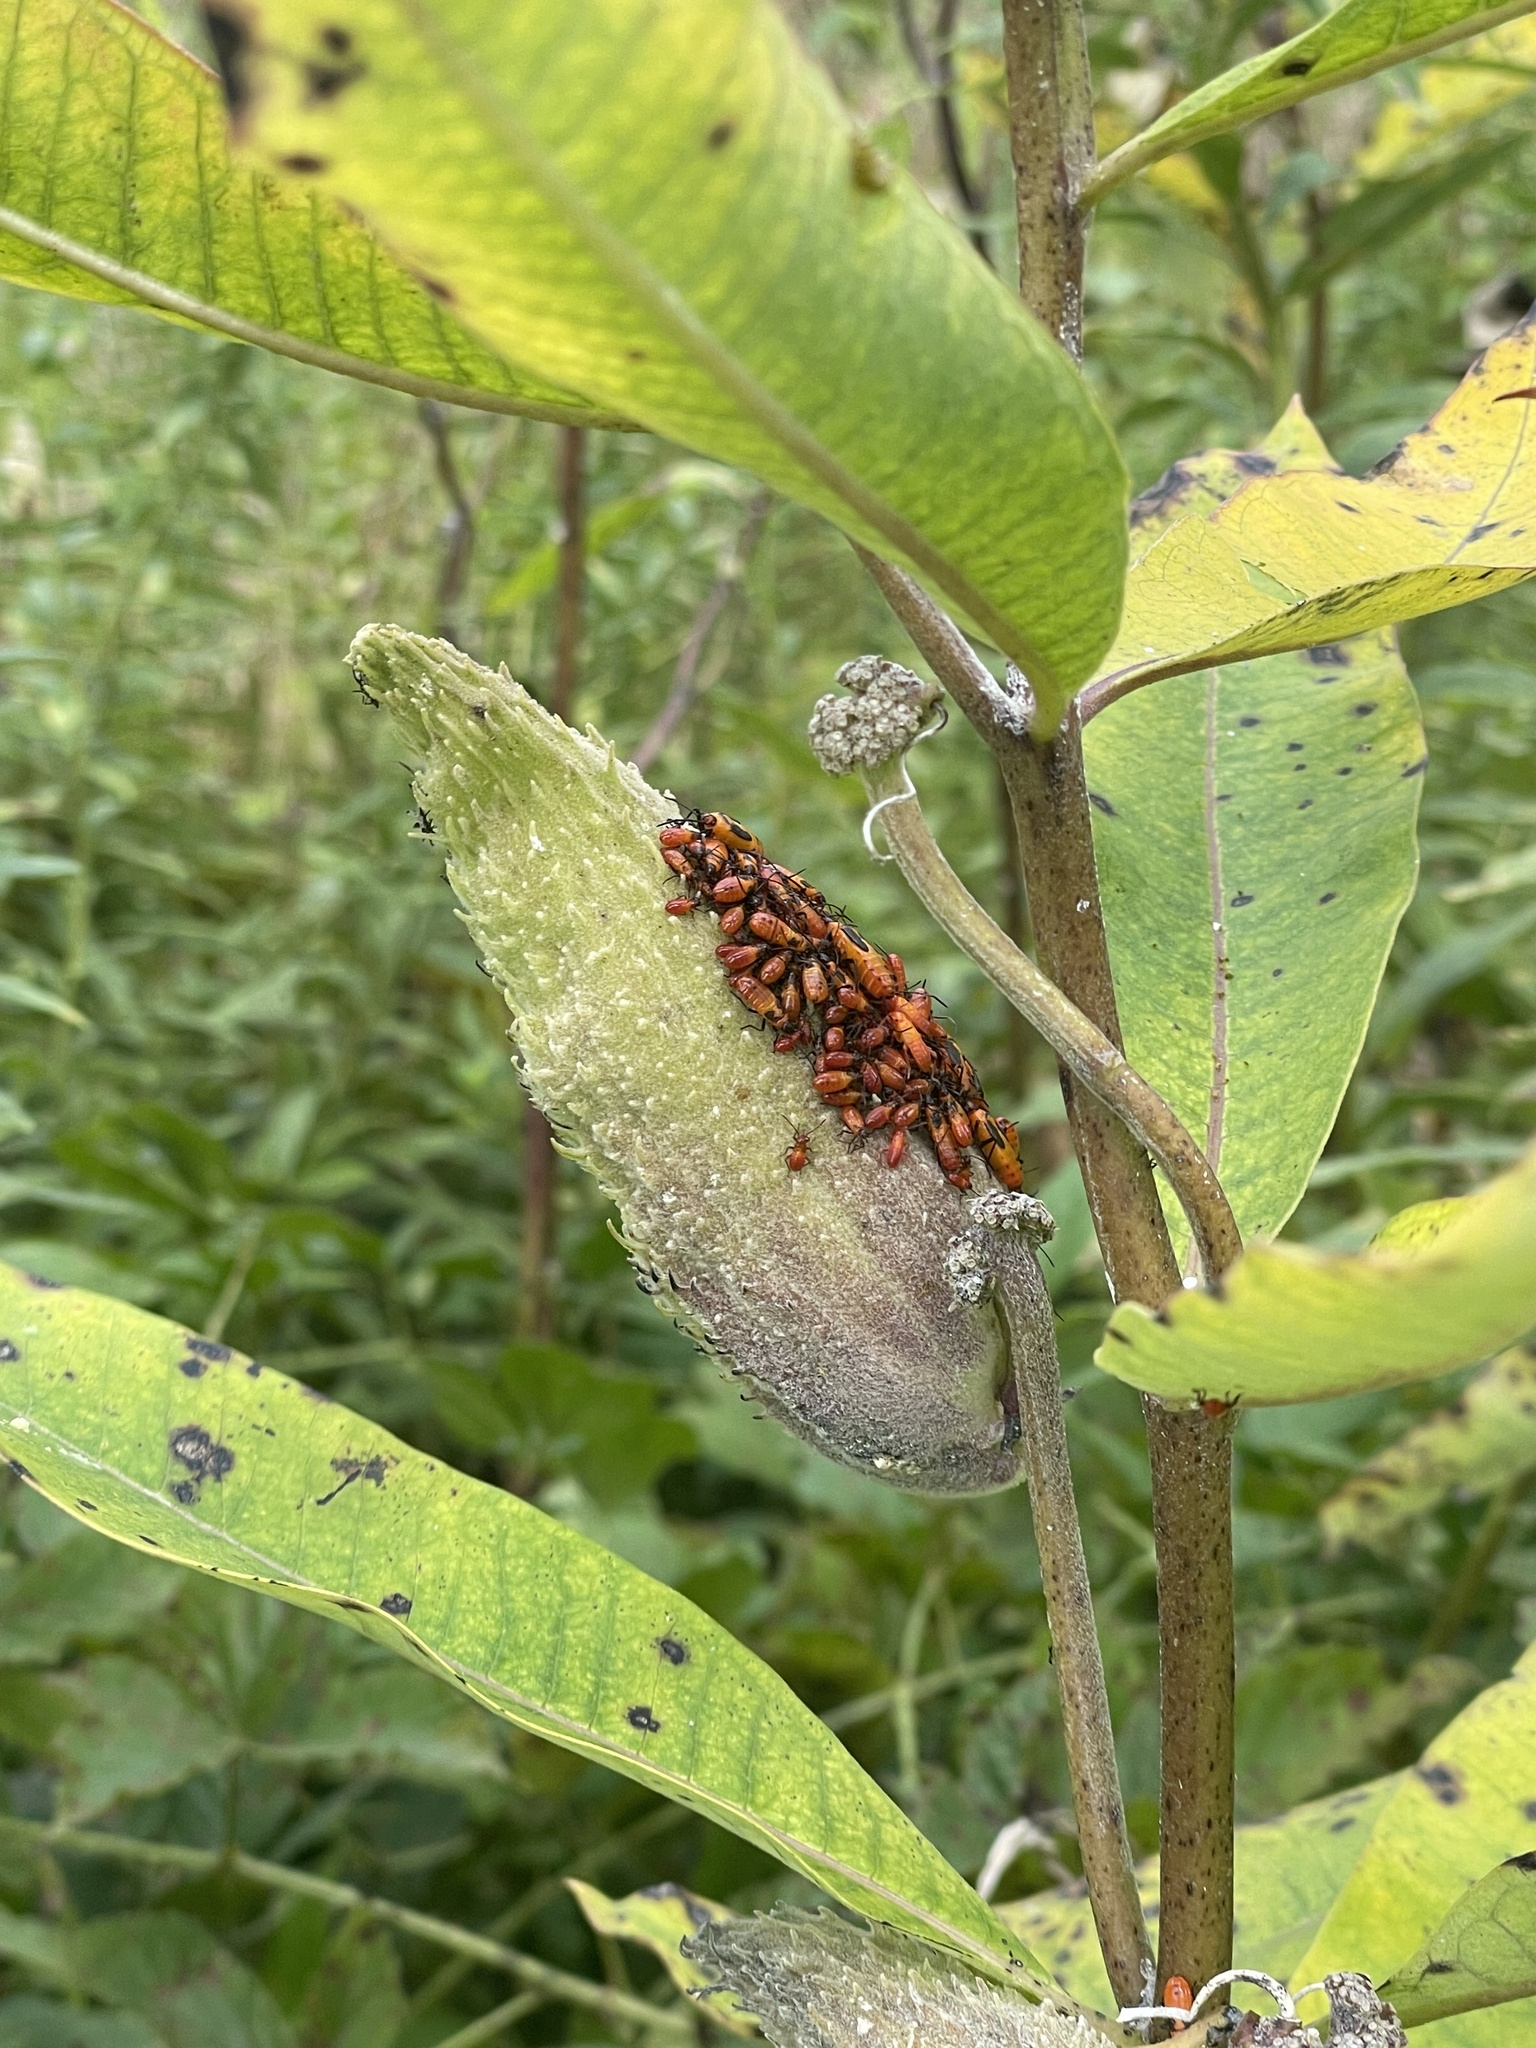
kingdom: Animalia
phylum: Arthropoda
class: Insecta
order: Hemiptera
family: Lygaeidae
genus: Oncopeltus
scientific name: Oncopeltus fasciatus
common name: Large milkweed bug
